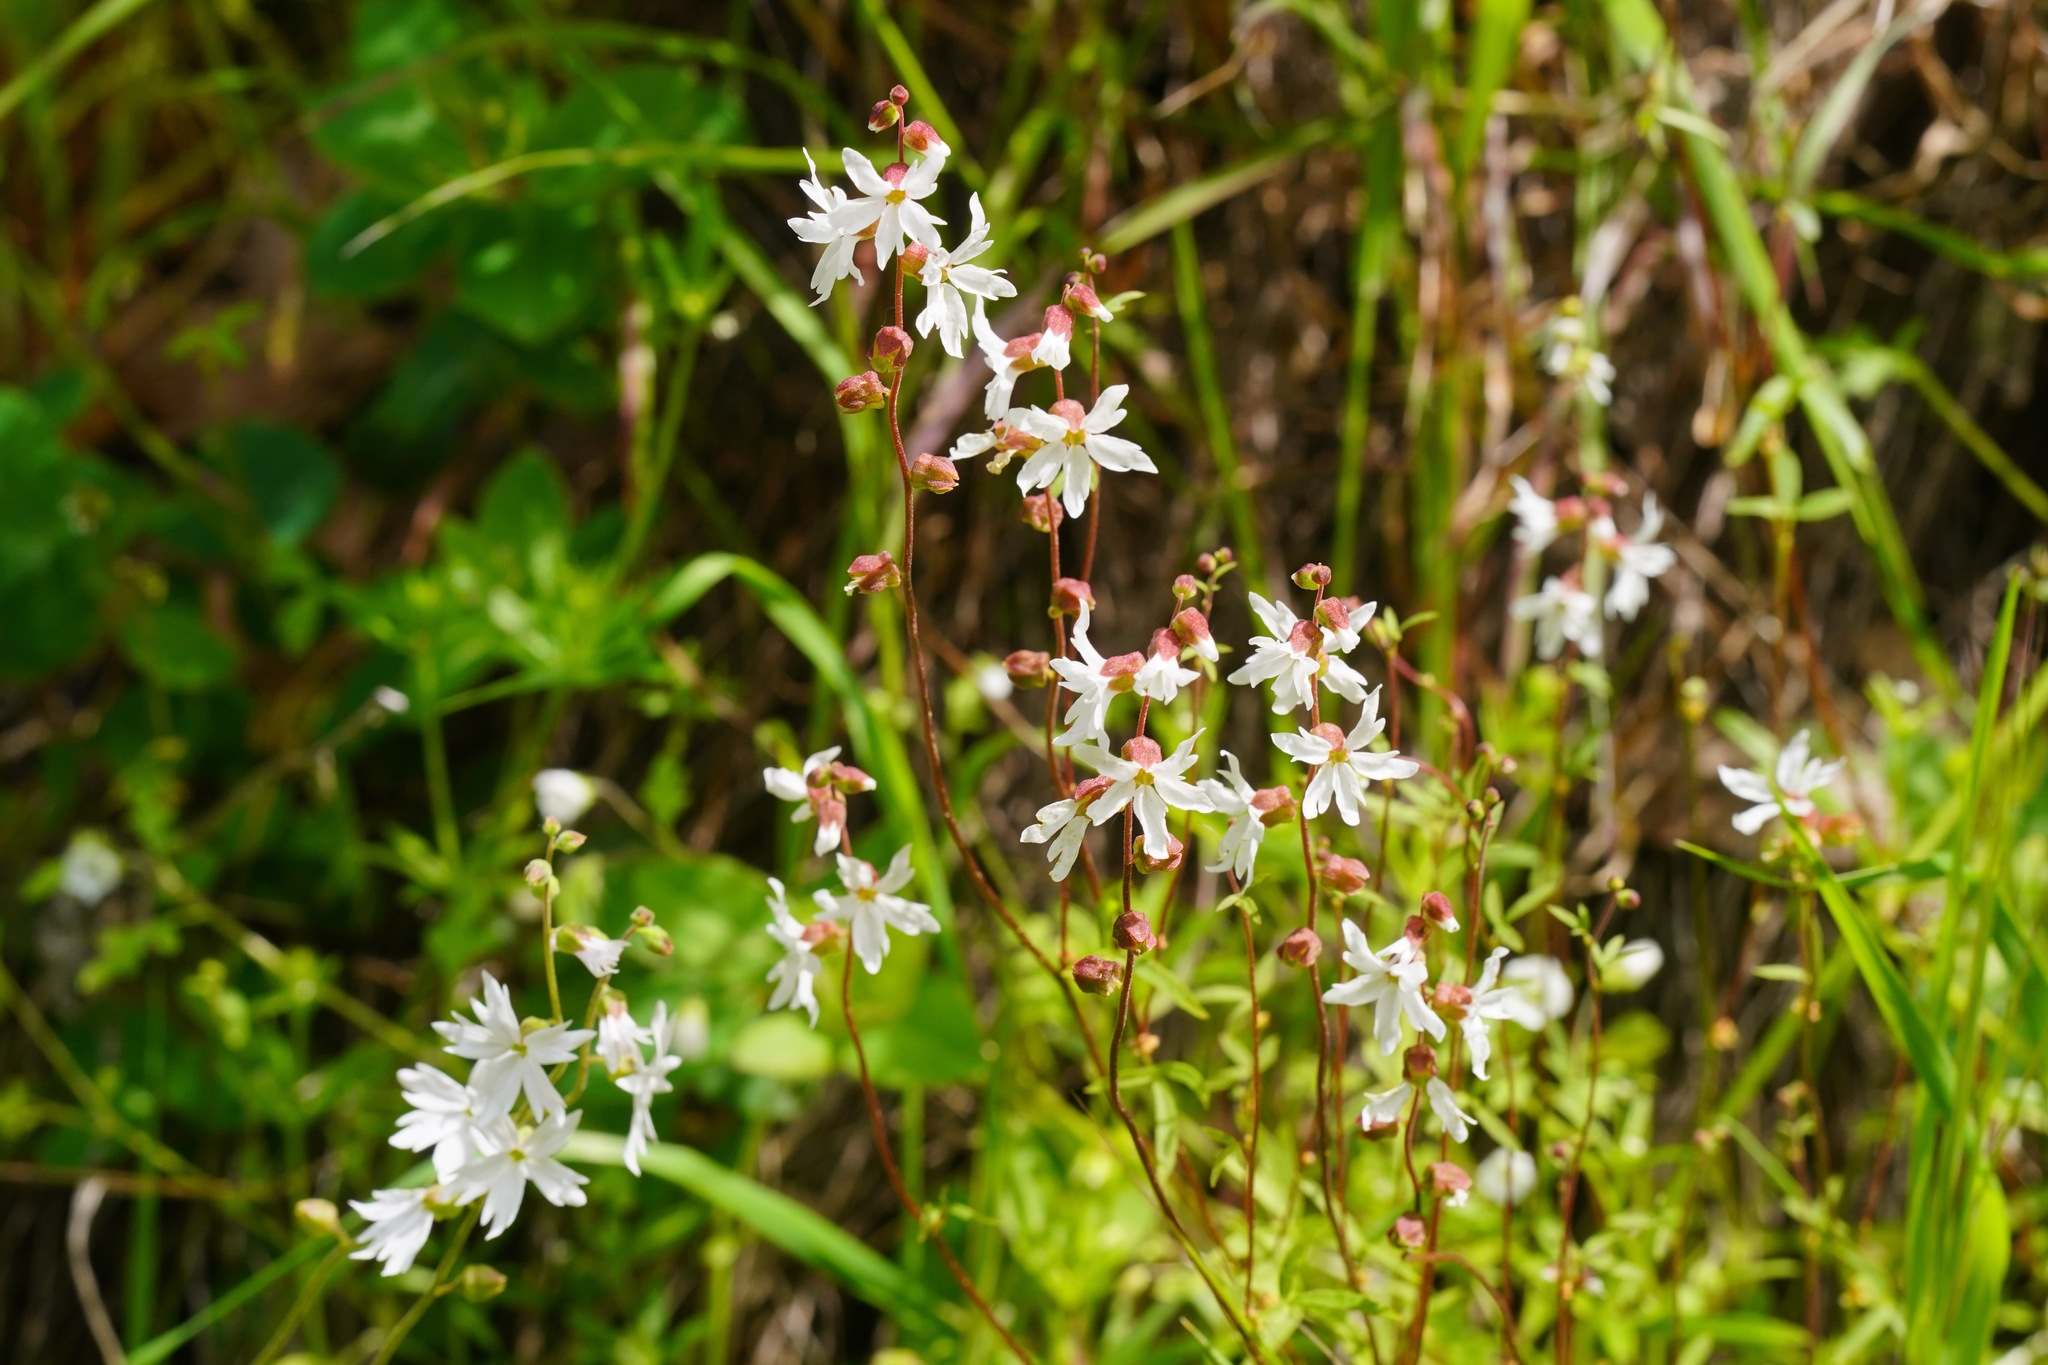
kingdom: Plantae
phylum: Tracheophyta
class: Magnoliopsida
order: Saxifragales
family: Saxifragaceae
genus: Lithophragma
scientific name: Lithophragma heterophyllum
